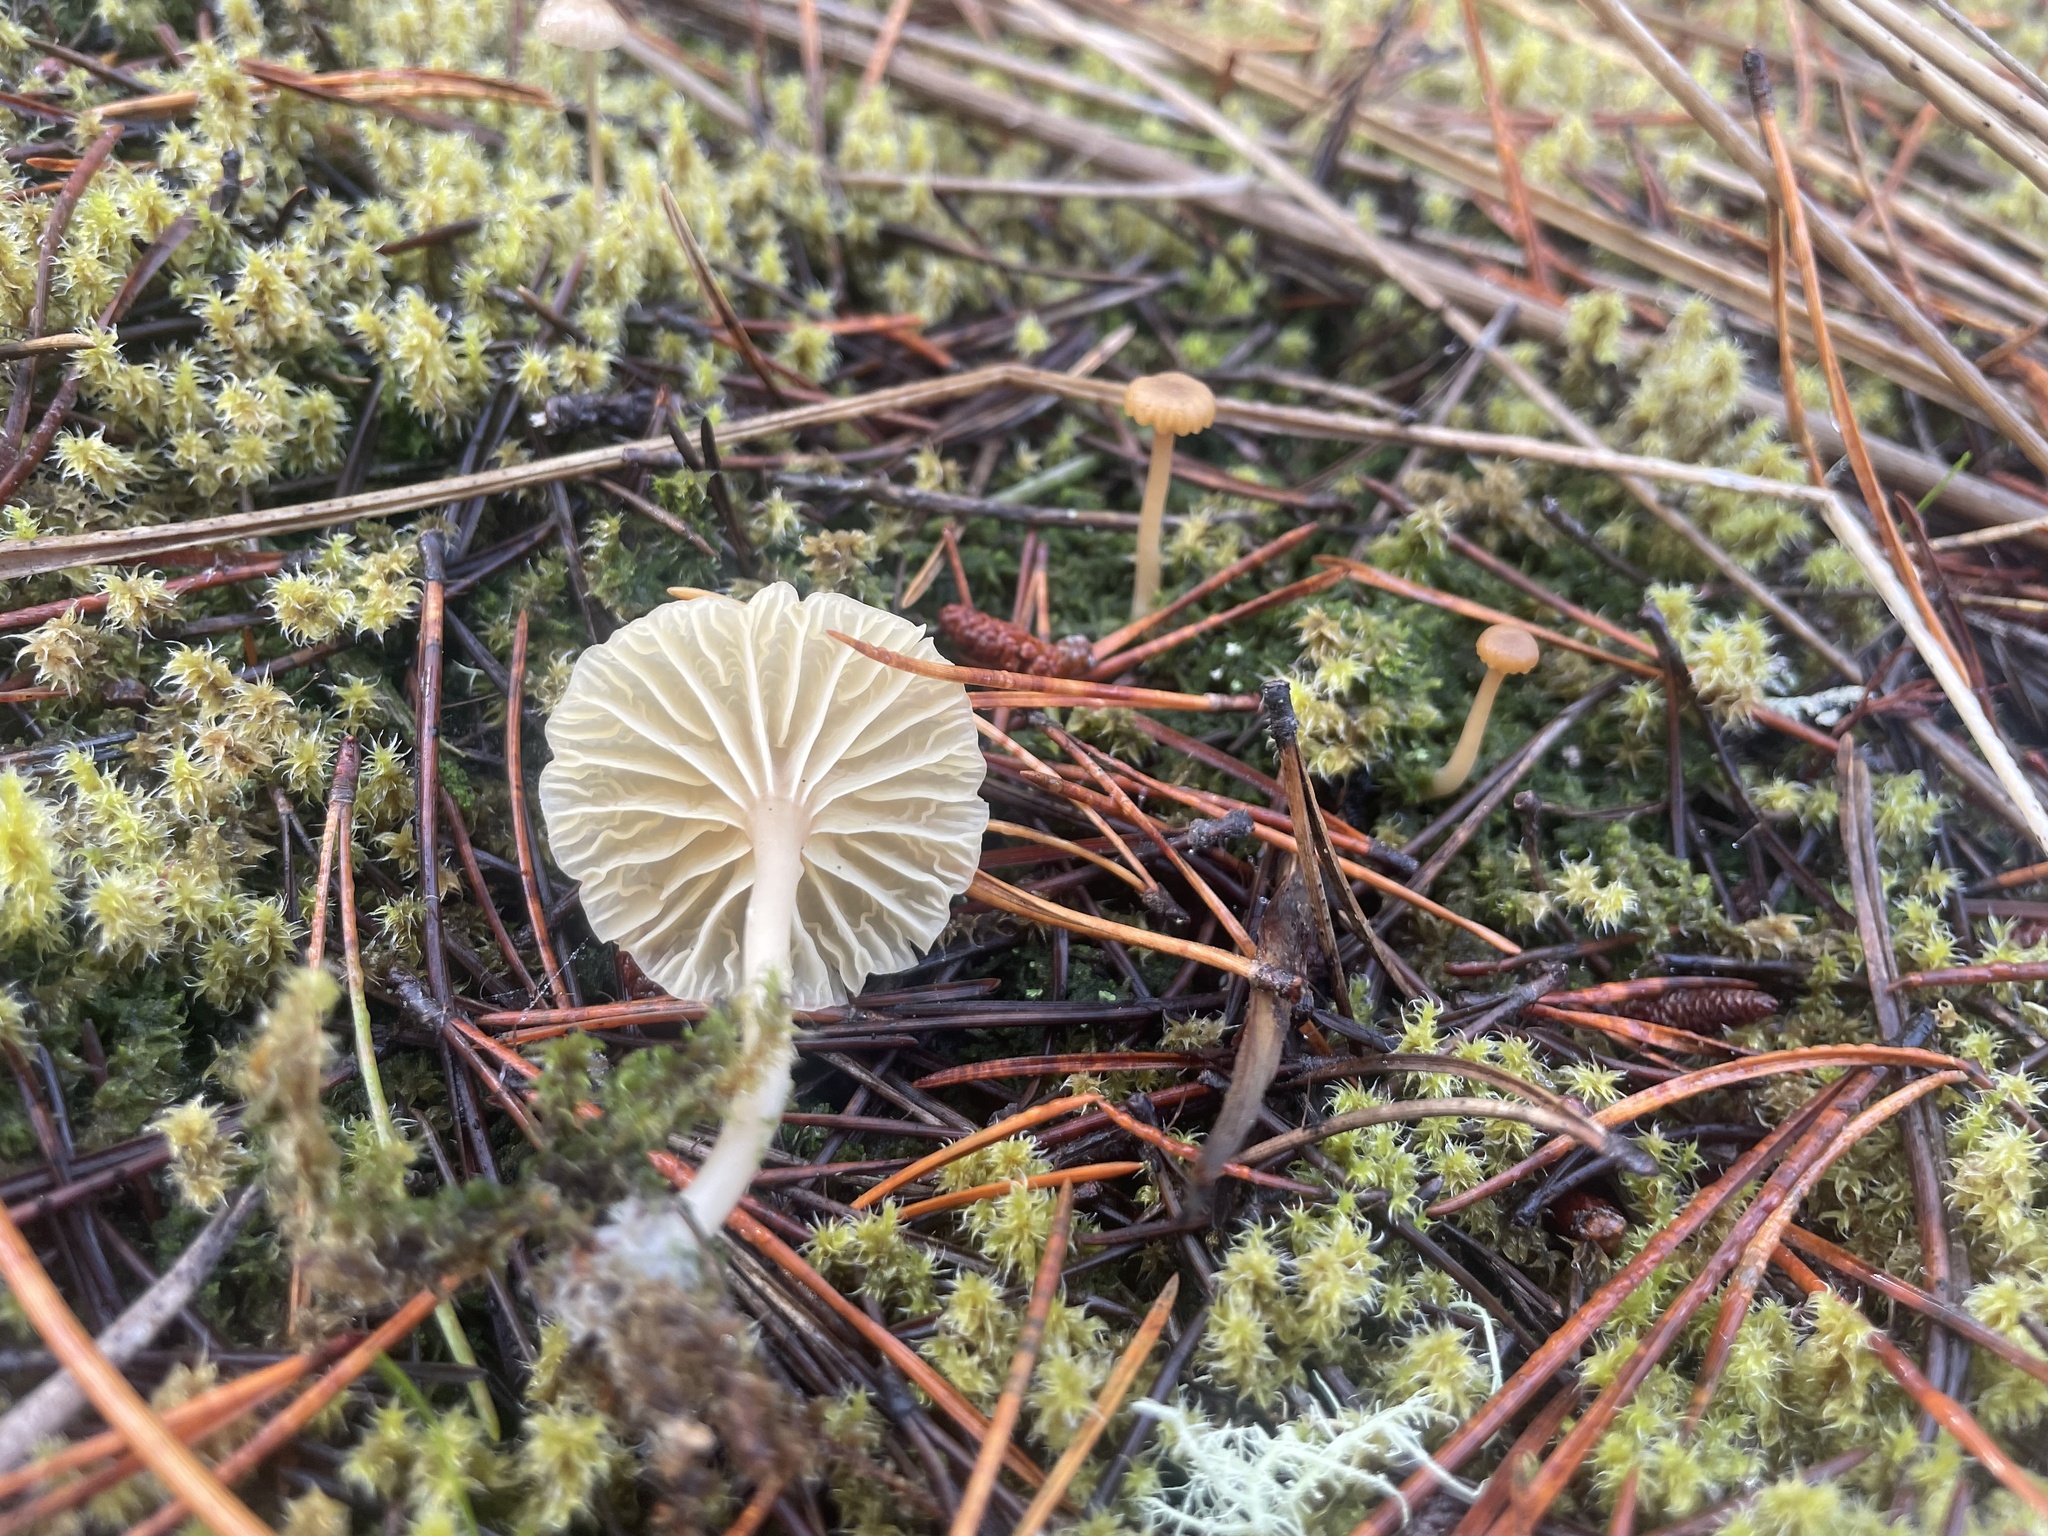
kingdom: Fungi
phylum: Basidiomycota
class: Agaricomycetes
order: Agaricales
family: Hygrophoraceae
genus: Lichenomphalia
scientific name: Lichenomphalia
